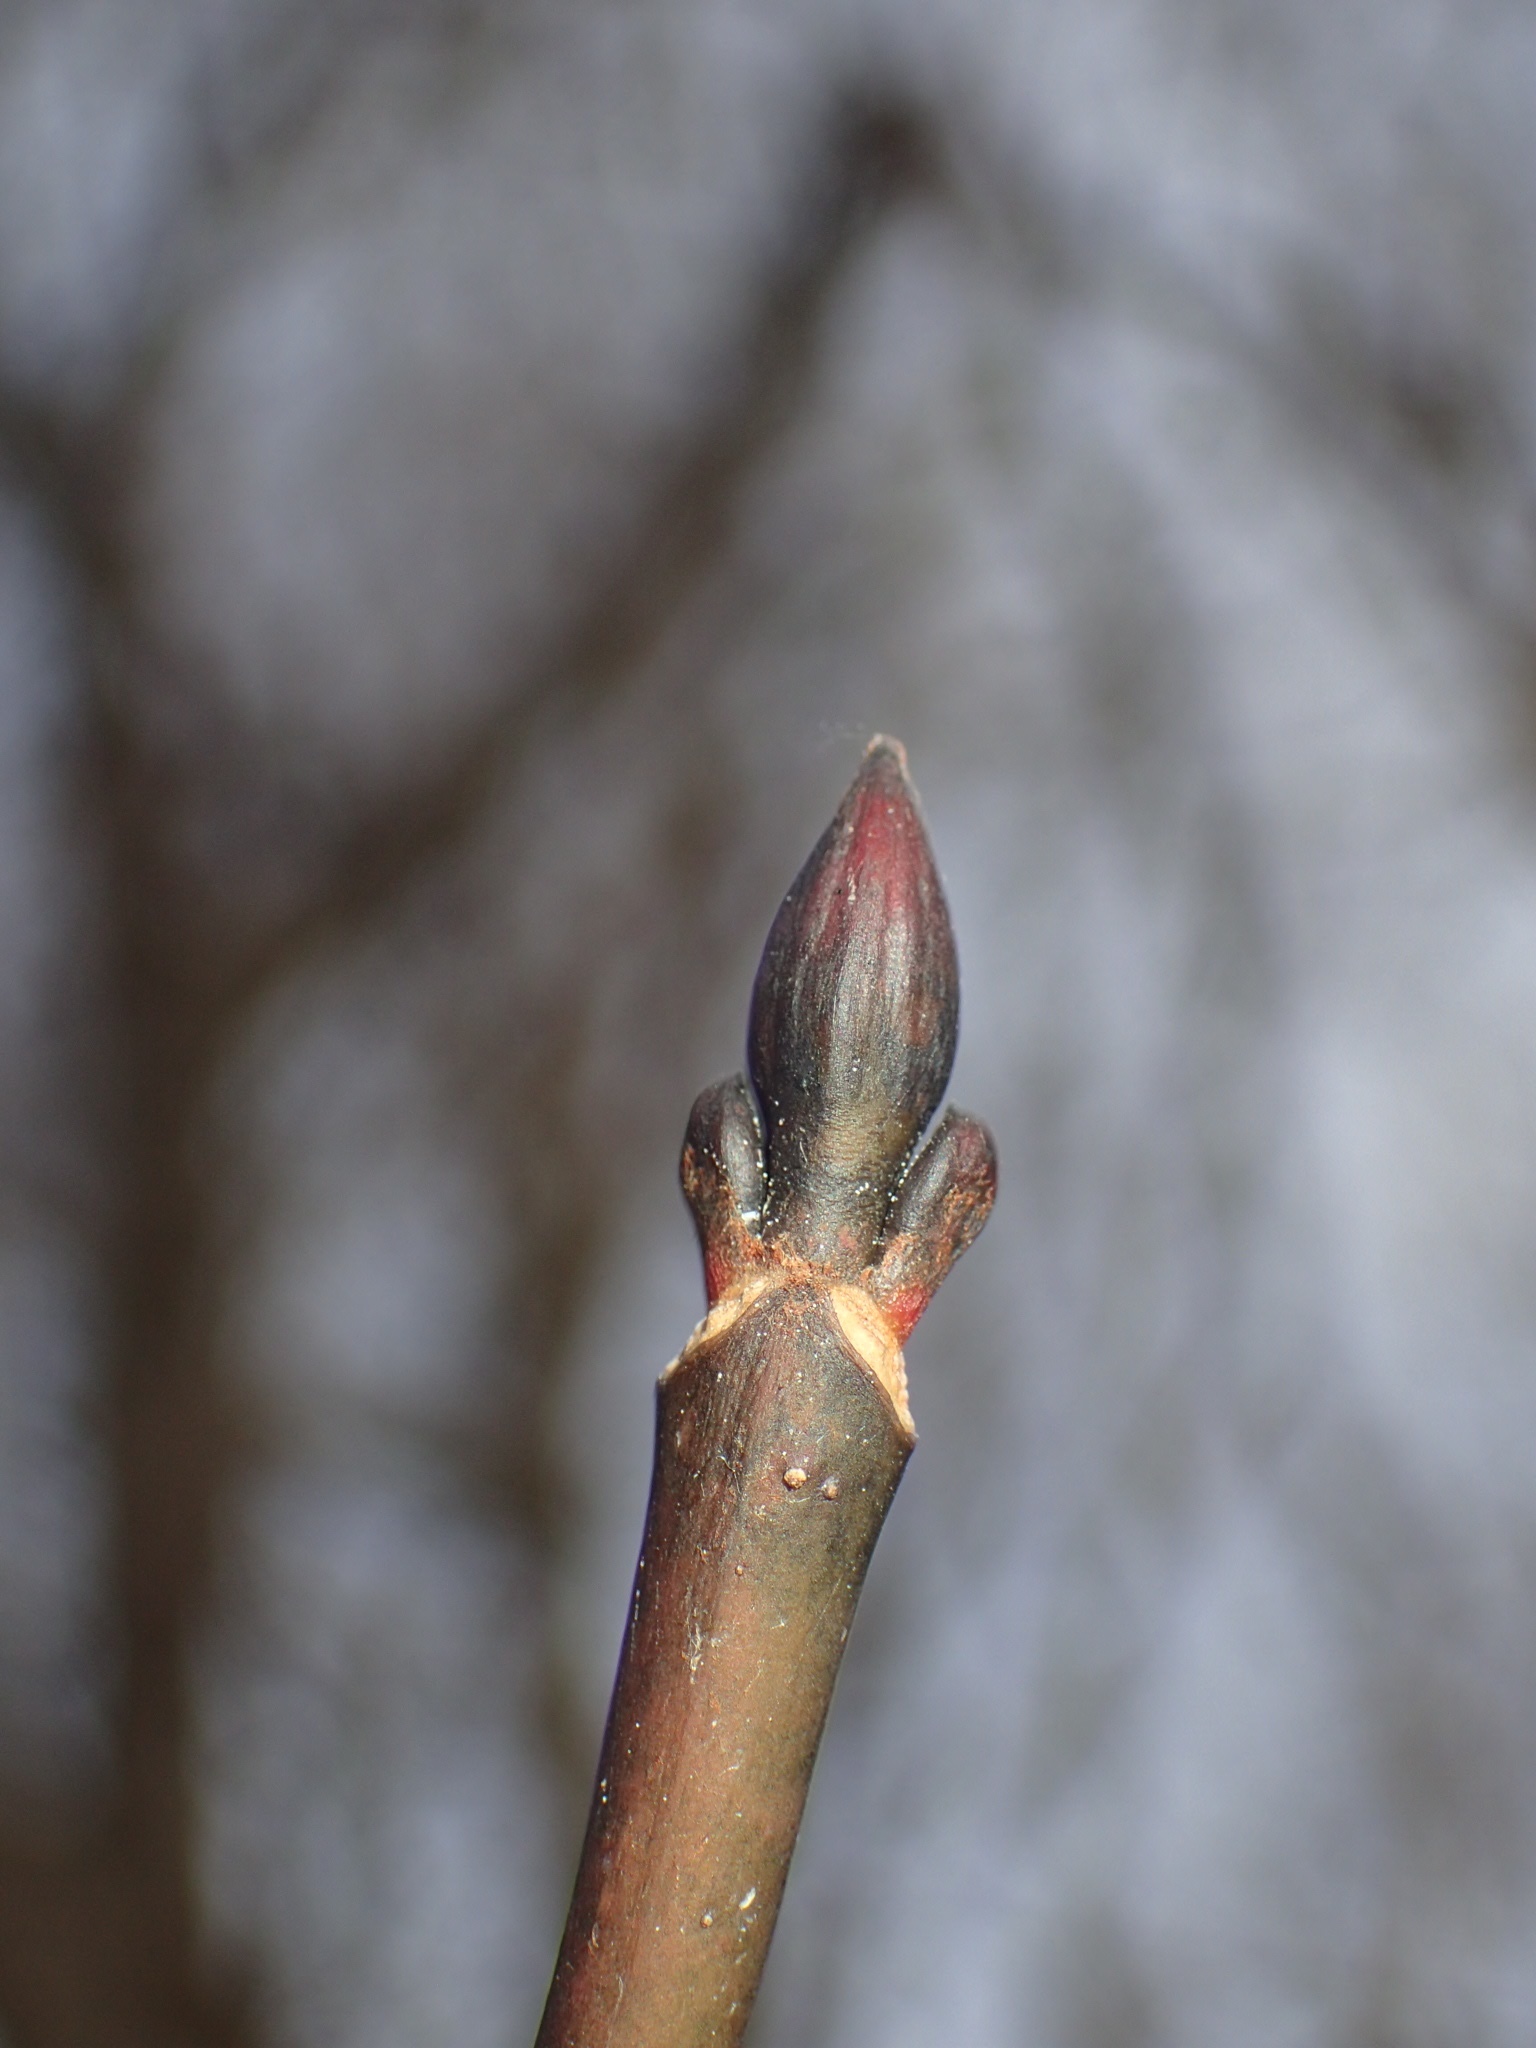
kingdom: Plantae
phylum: Tracheophyta
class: Magnoliopsida
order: Sapindales
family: Sapindaceae
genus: Acer
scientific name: Acer pensylvanicum
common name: Moosewood
